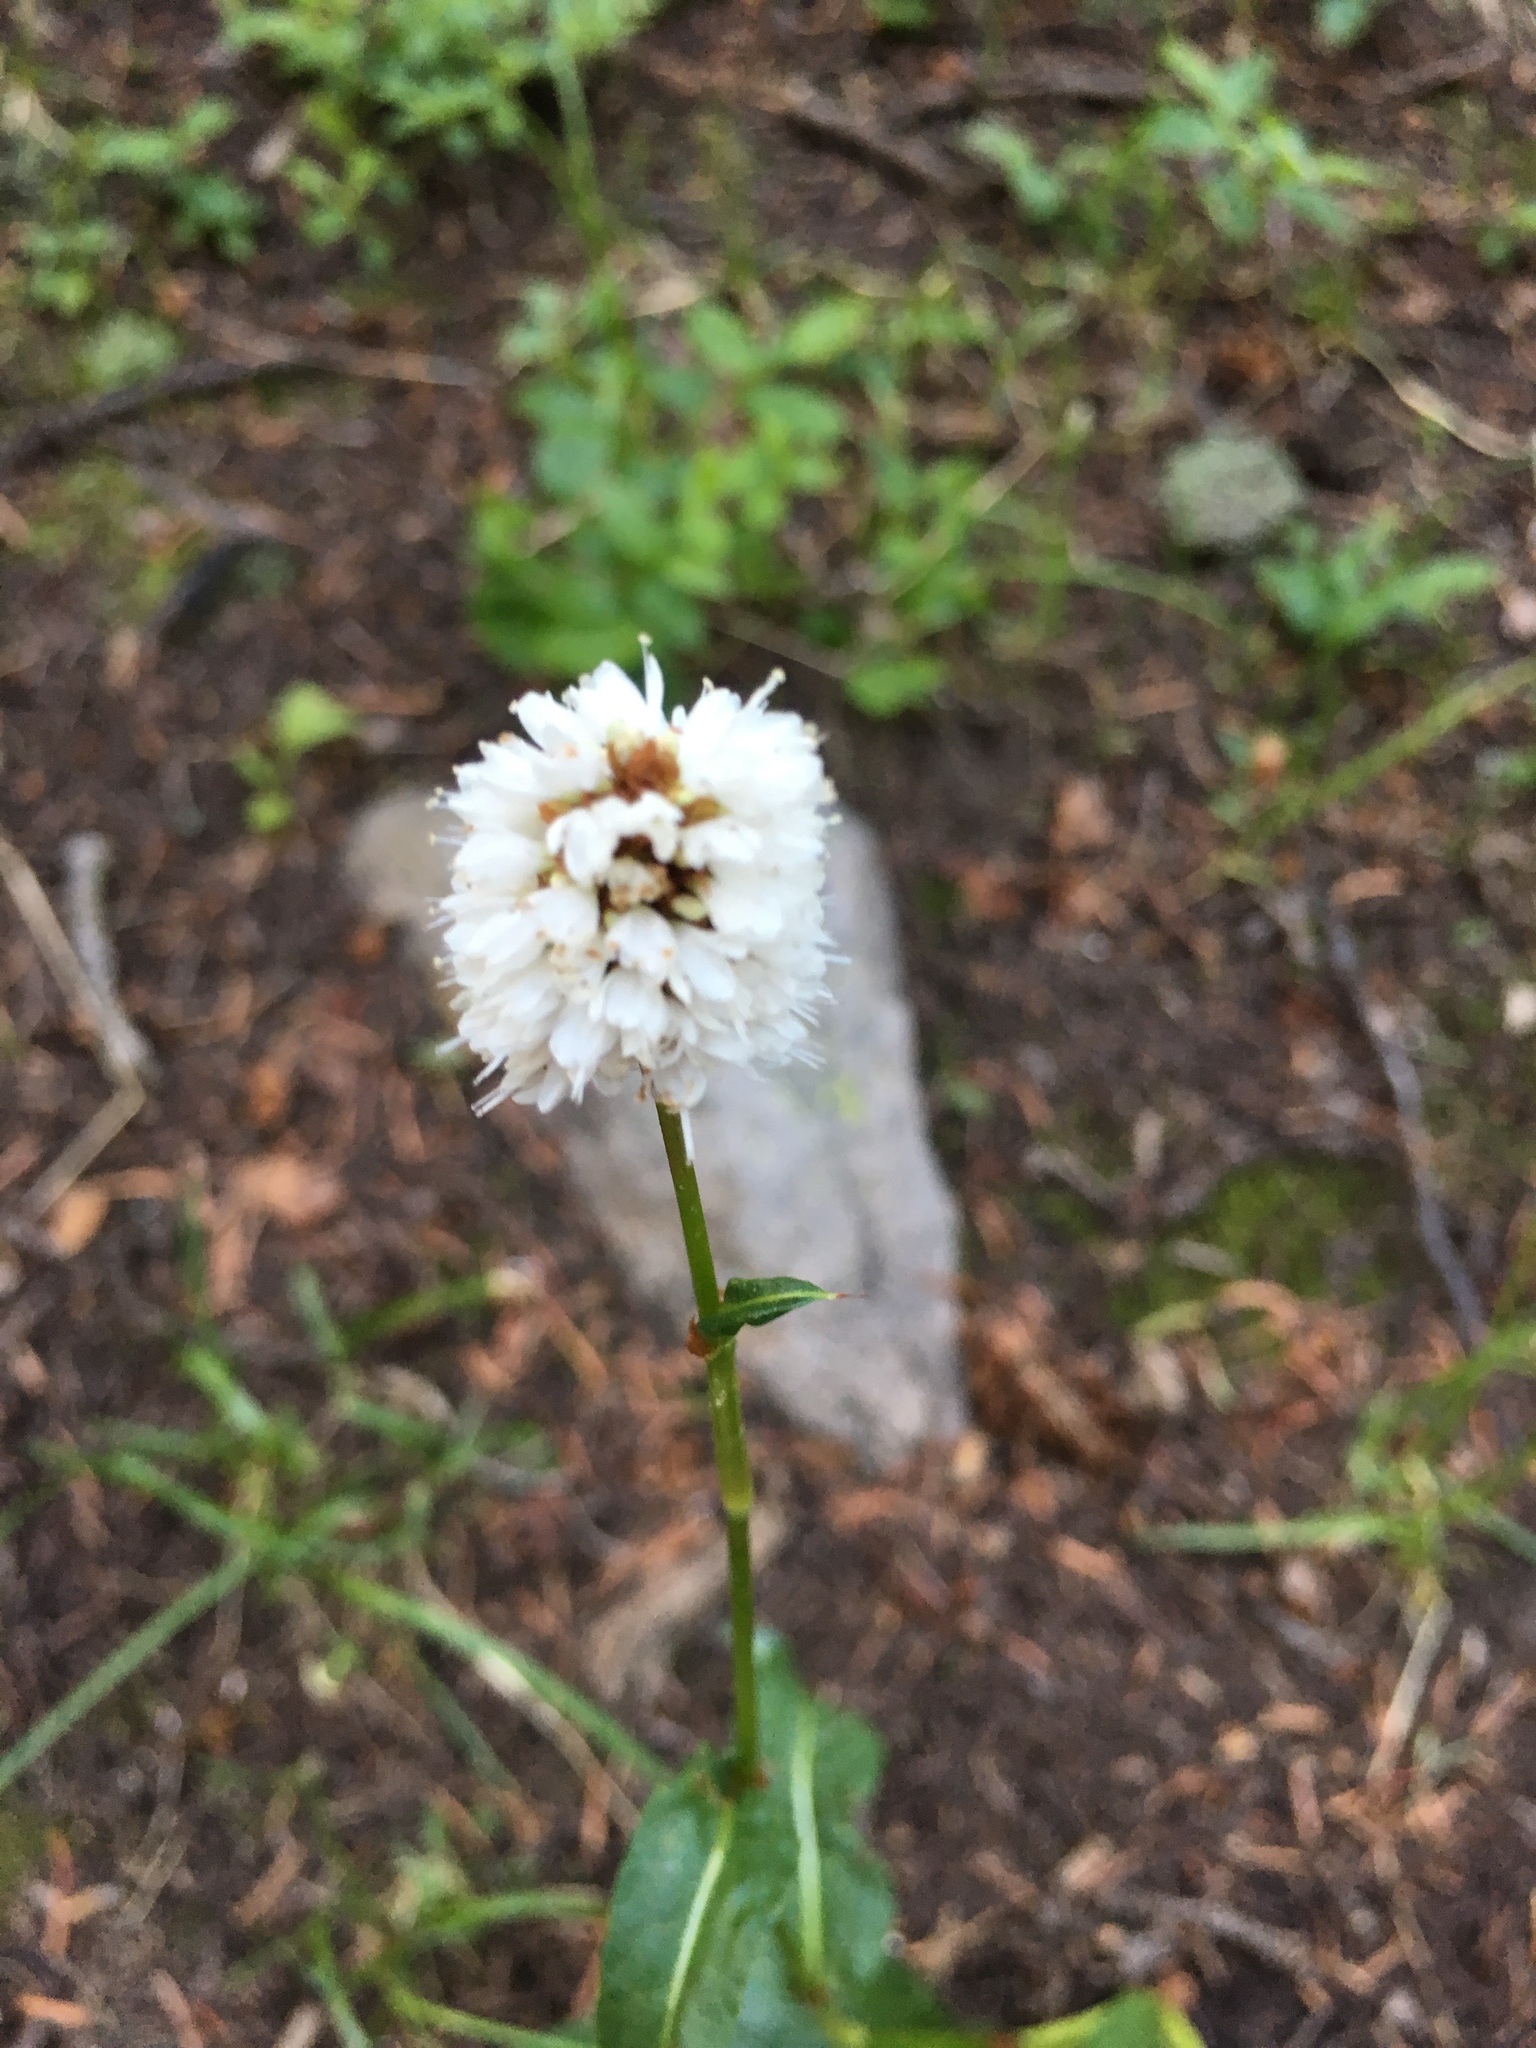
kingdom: Plantae
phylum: Tracheophyta
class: Magnoliopsida
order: Caryophyllales
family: Polygonaceae
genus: Bistorta
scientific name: Bistorta bistortoides
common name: American bistort
